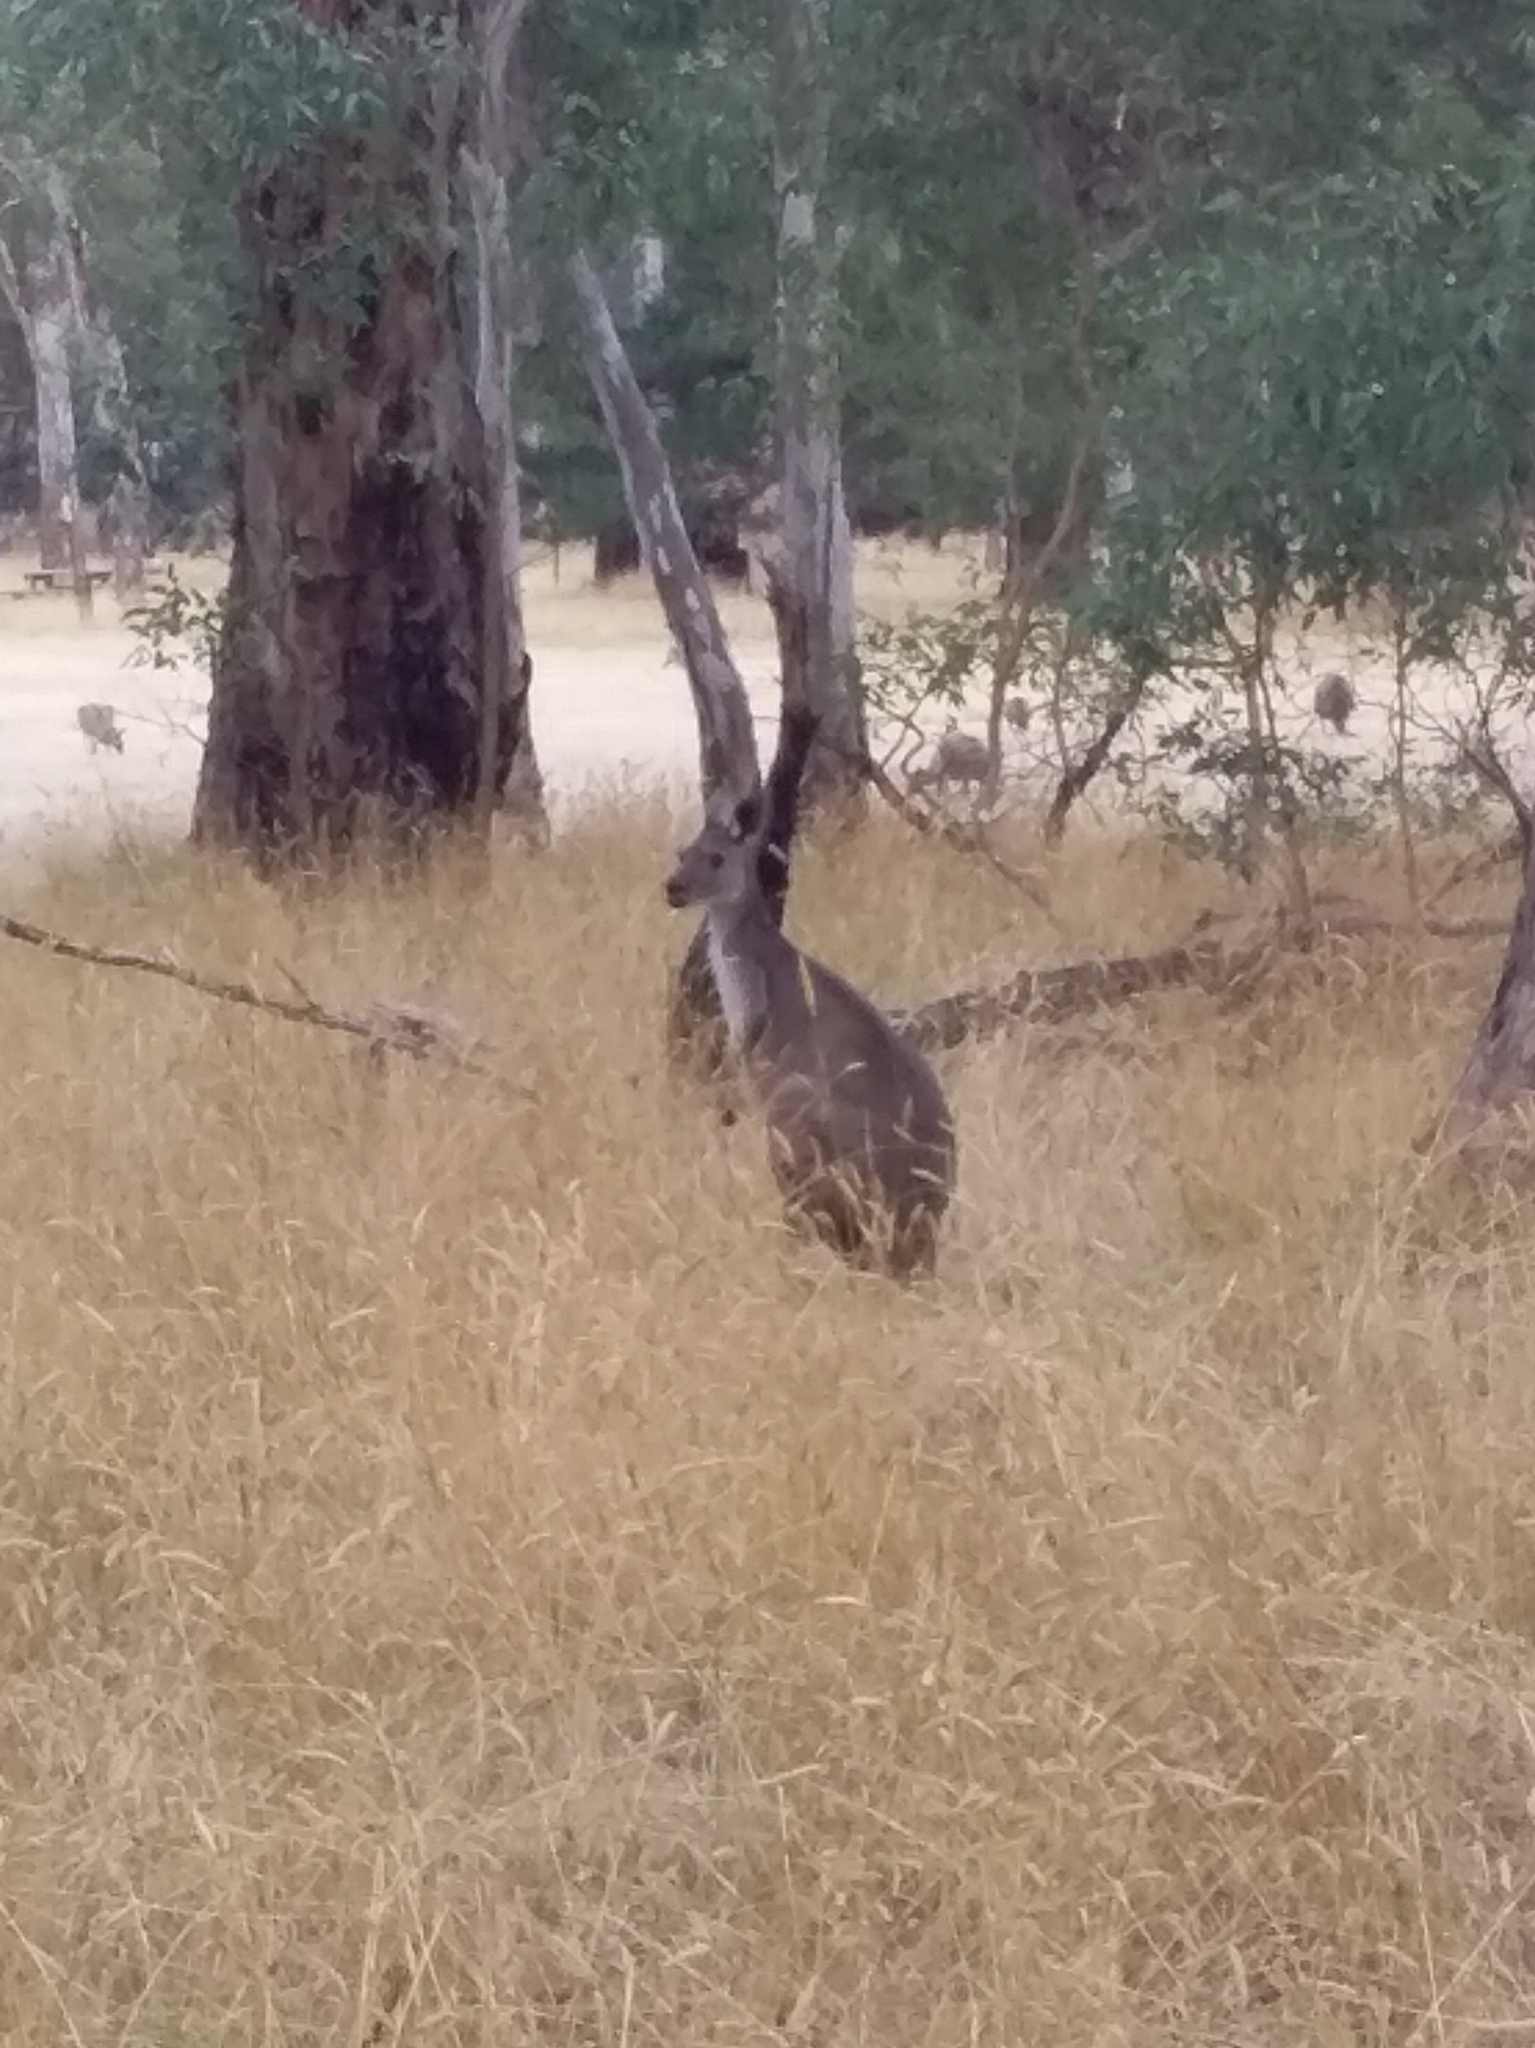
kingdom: Animalia
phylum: Chordata
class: Mammalia
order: Diprotodontia
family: Macropodidae
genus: Macropus
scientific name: Macropus fuliginosus
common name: Western grey kangaroo
